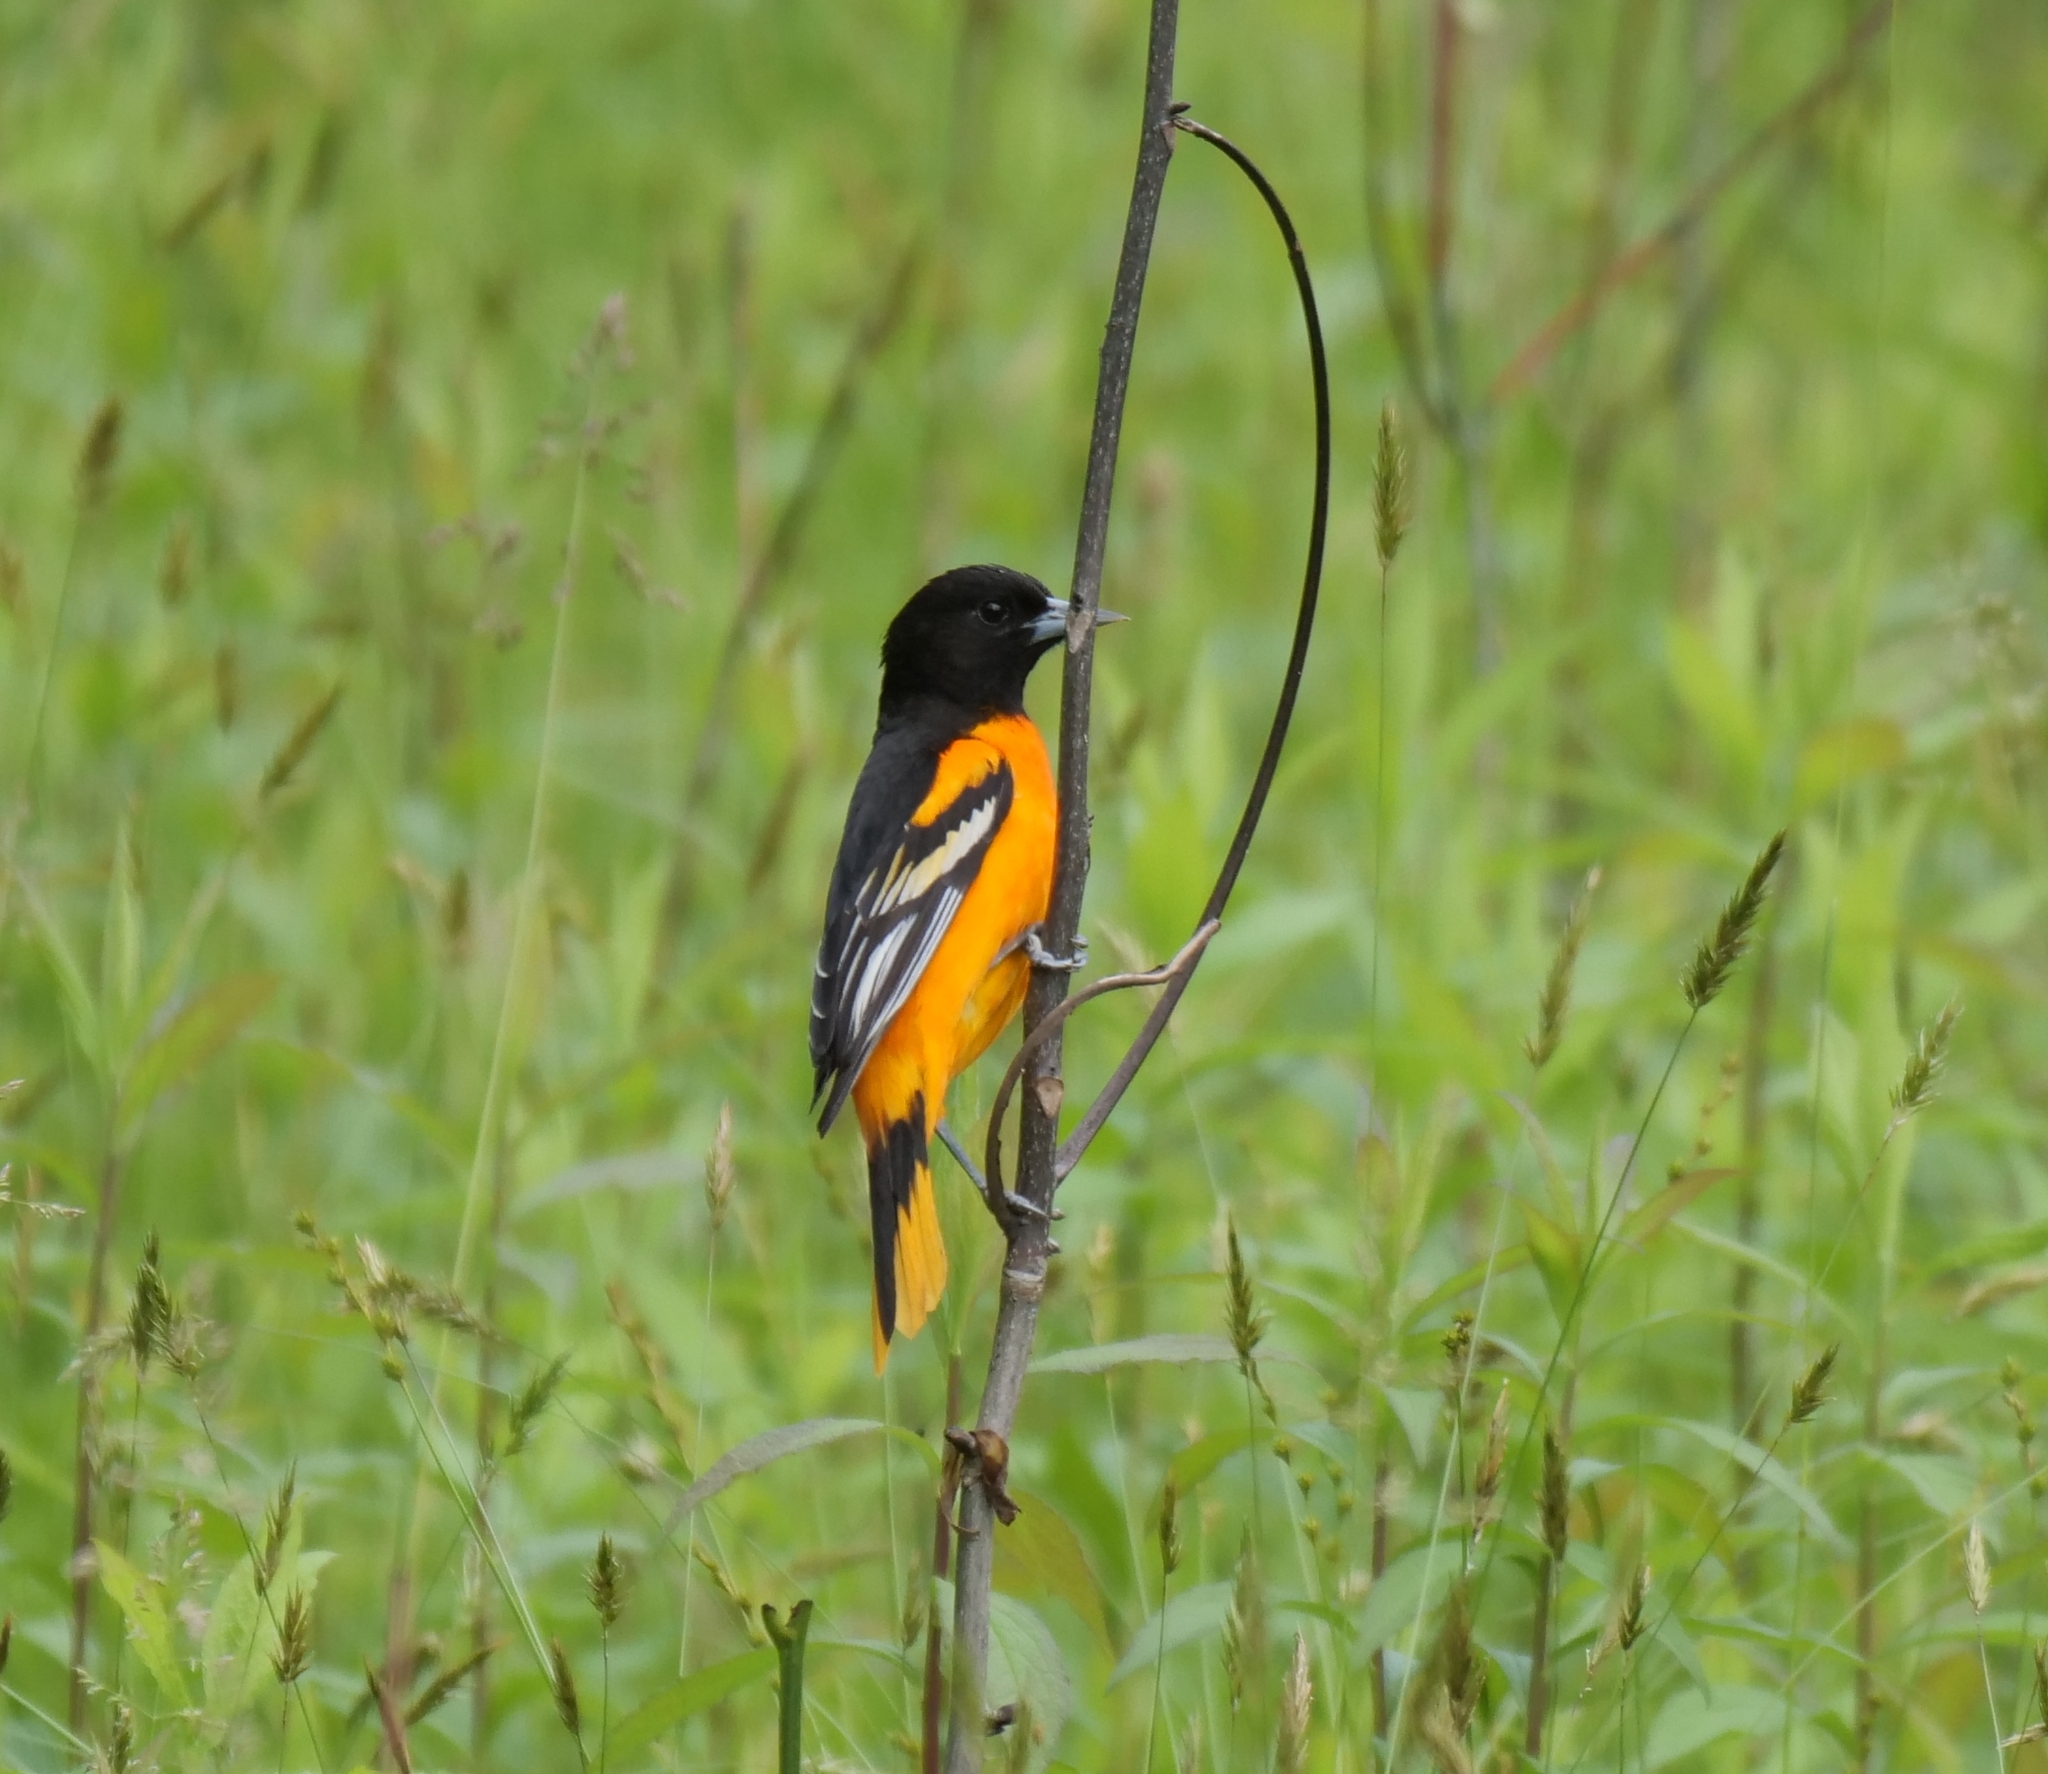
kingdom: Animalia
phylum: Chordata
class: Aves
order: Passeriformes
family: Icteridae
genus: Icterus
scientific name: Icterus galbula
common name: Baltimore oriole
